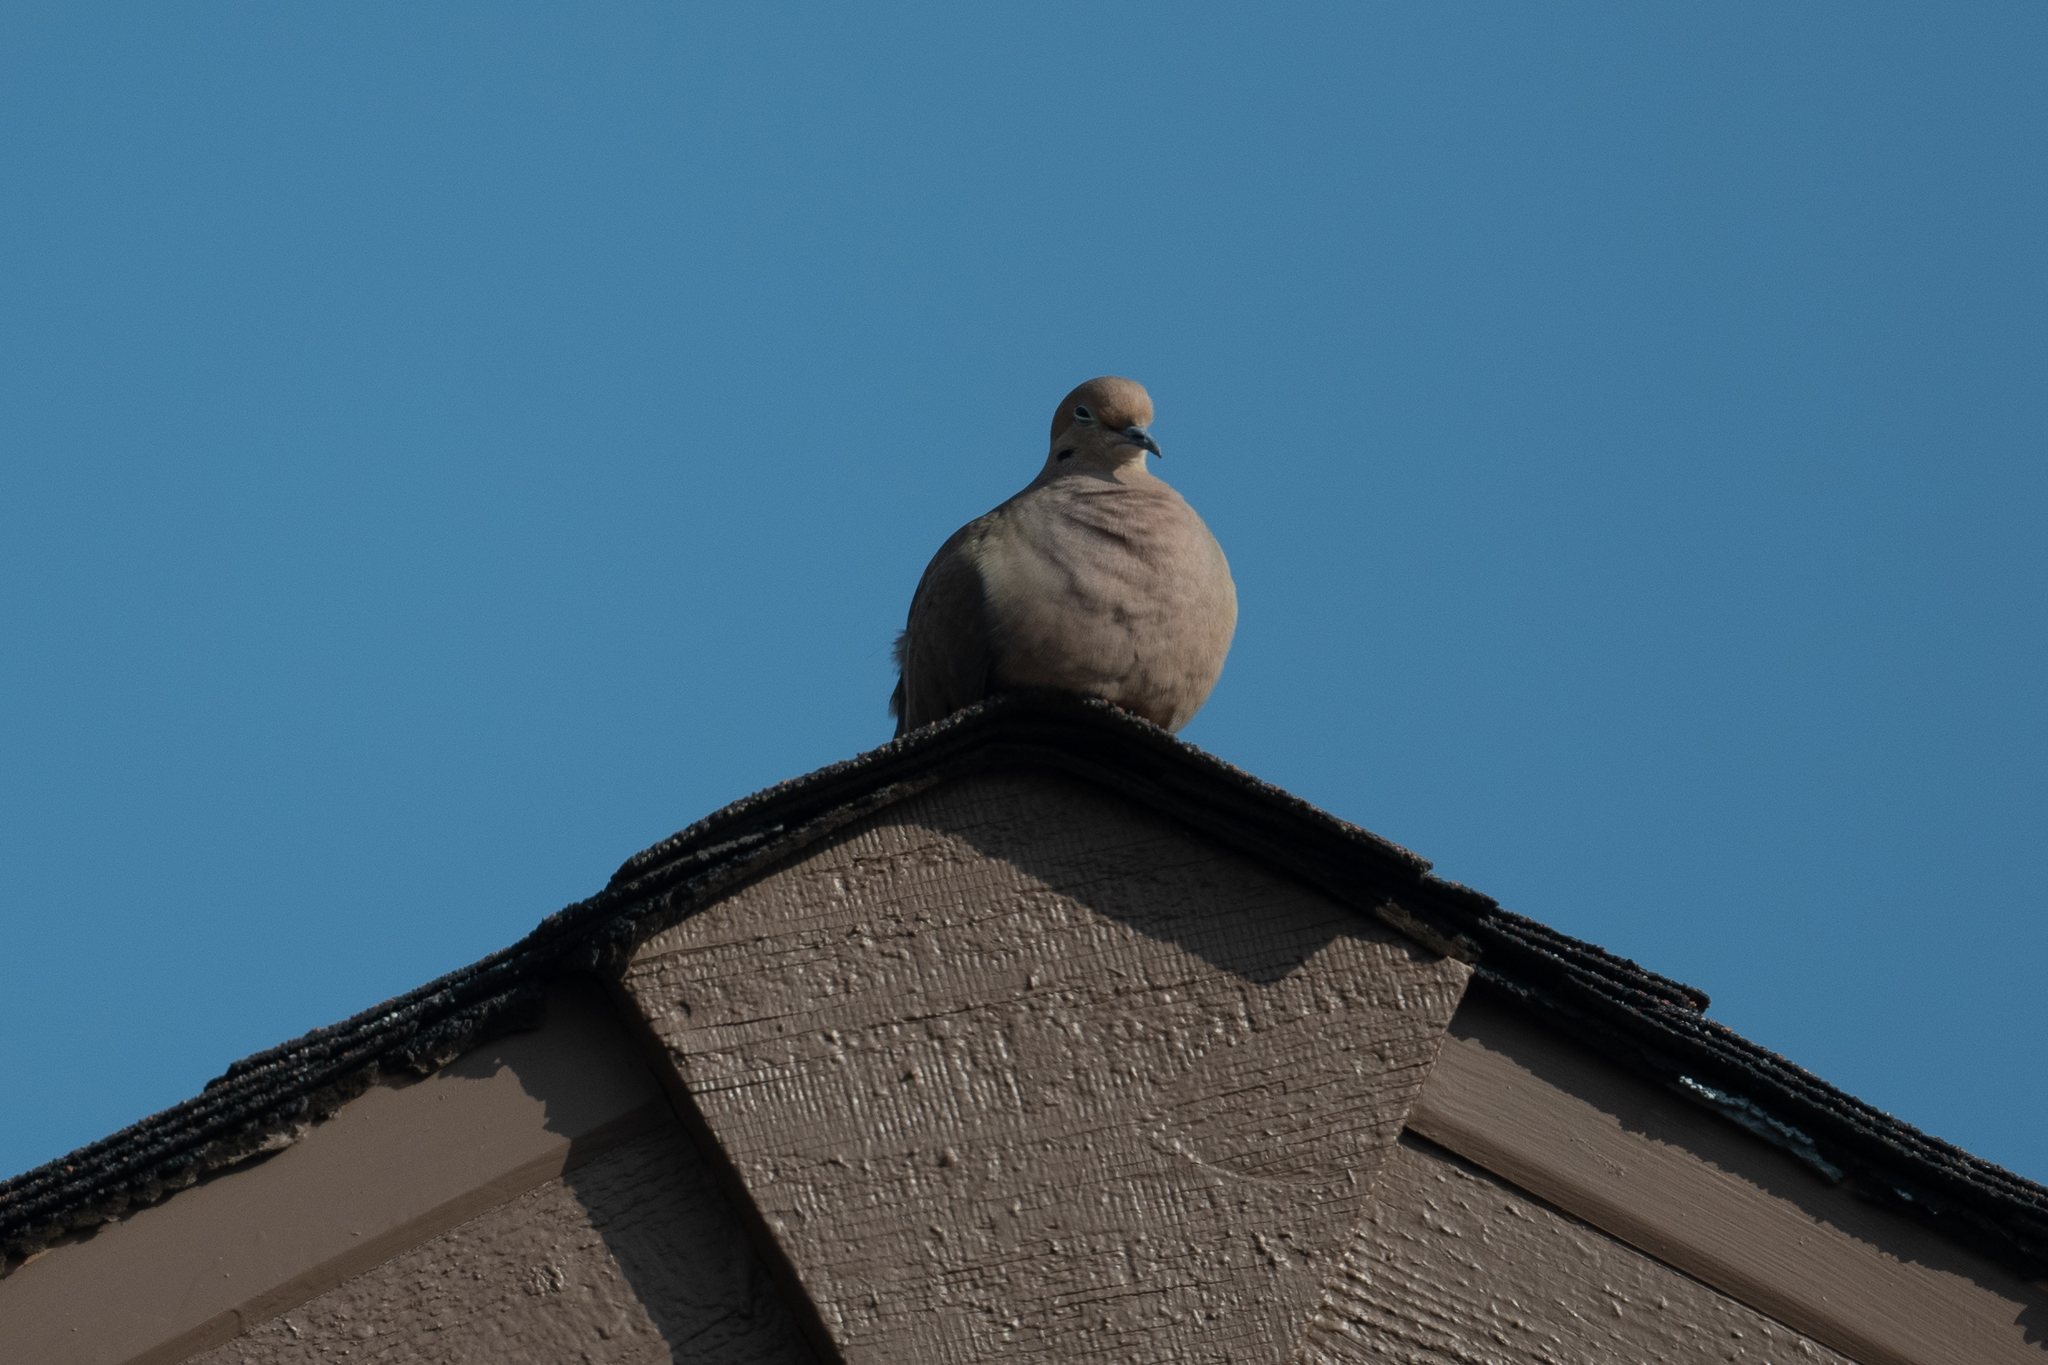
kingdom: Animalia
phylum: Chordata
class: Aves
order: Columbiformes
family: Columbidae
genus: Zenaida
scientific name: Zenaida macroura
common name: Mourning dove
